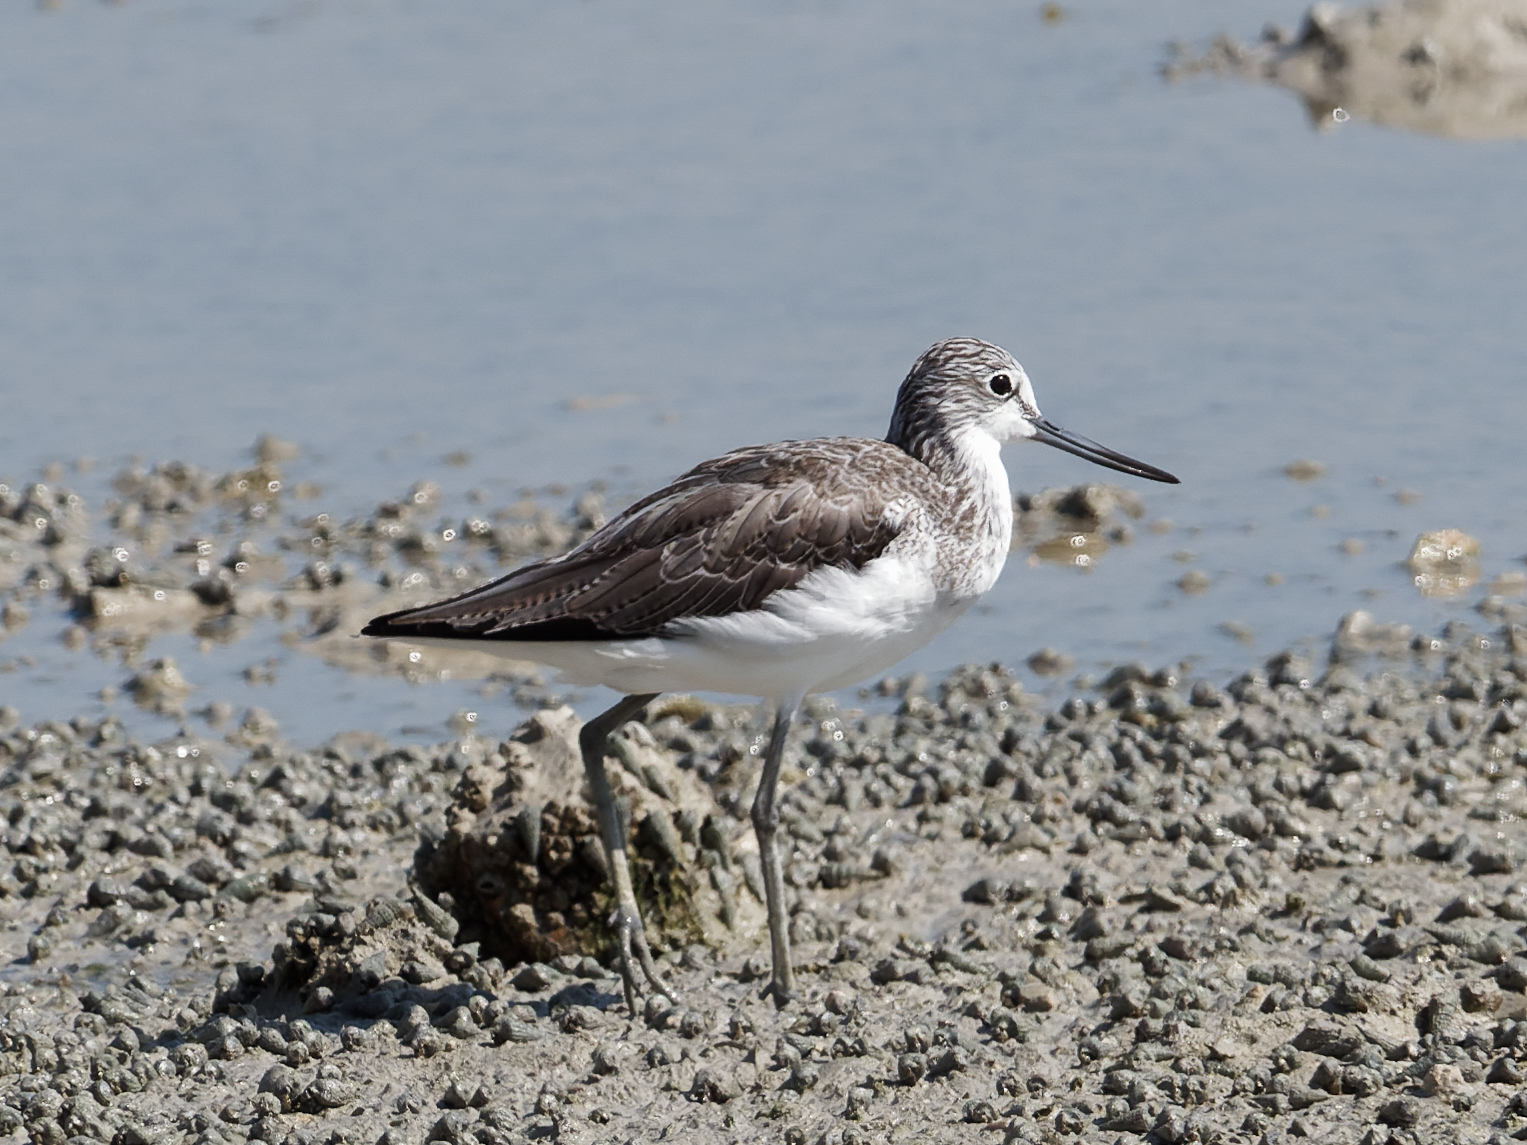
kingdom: Animalia
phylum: Chordata
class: Aves
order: Charadriiformes
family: Scolopacidae
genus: Tringa
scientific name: Tringa nebularia
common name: Common greenshank
